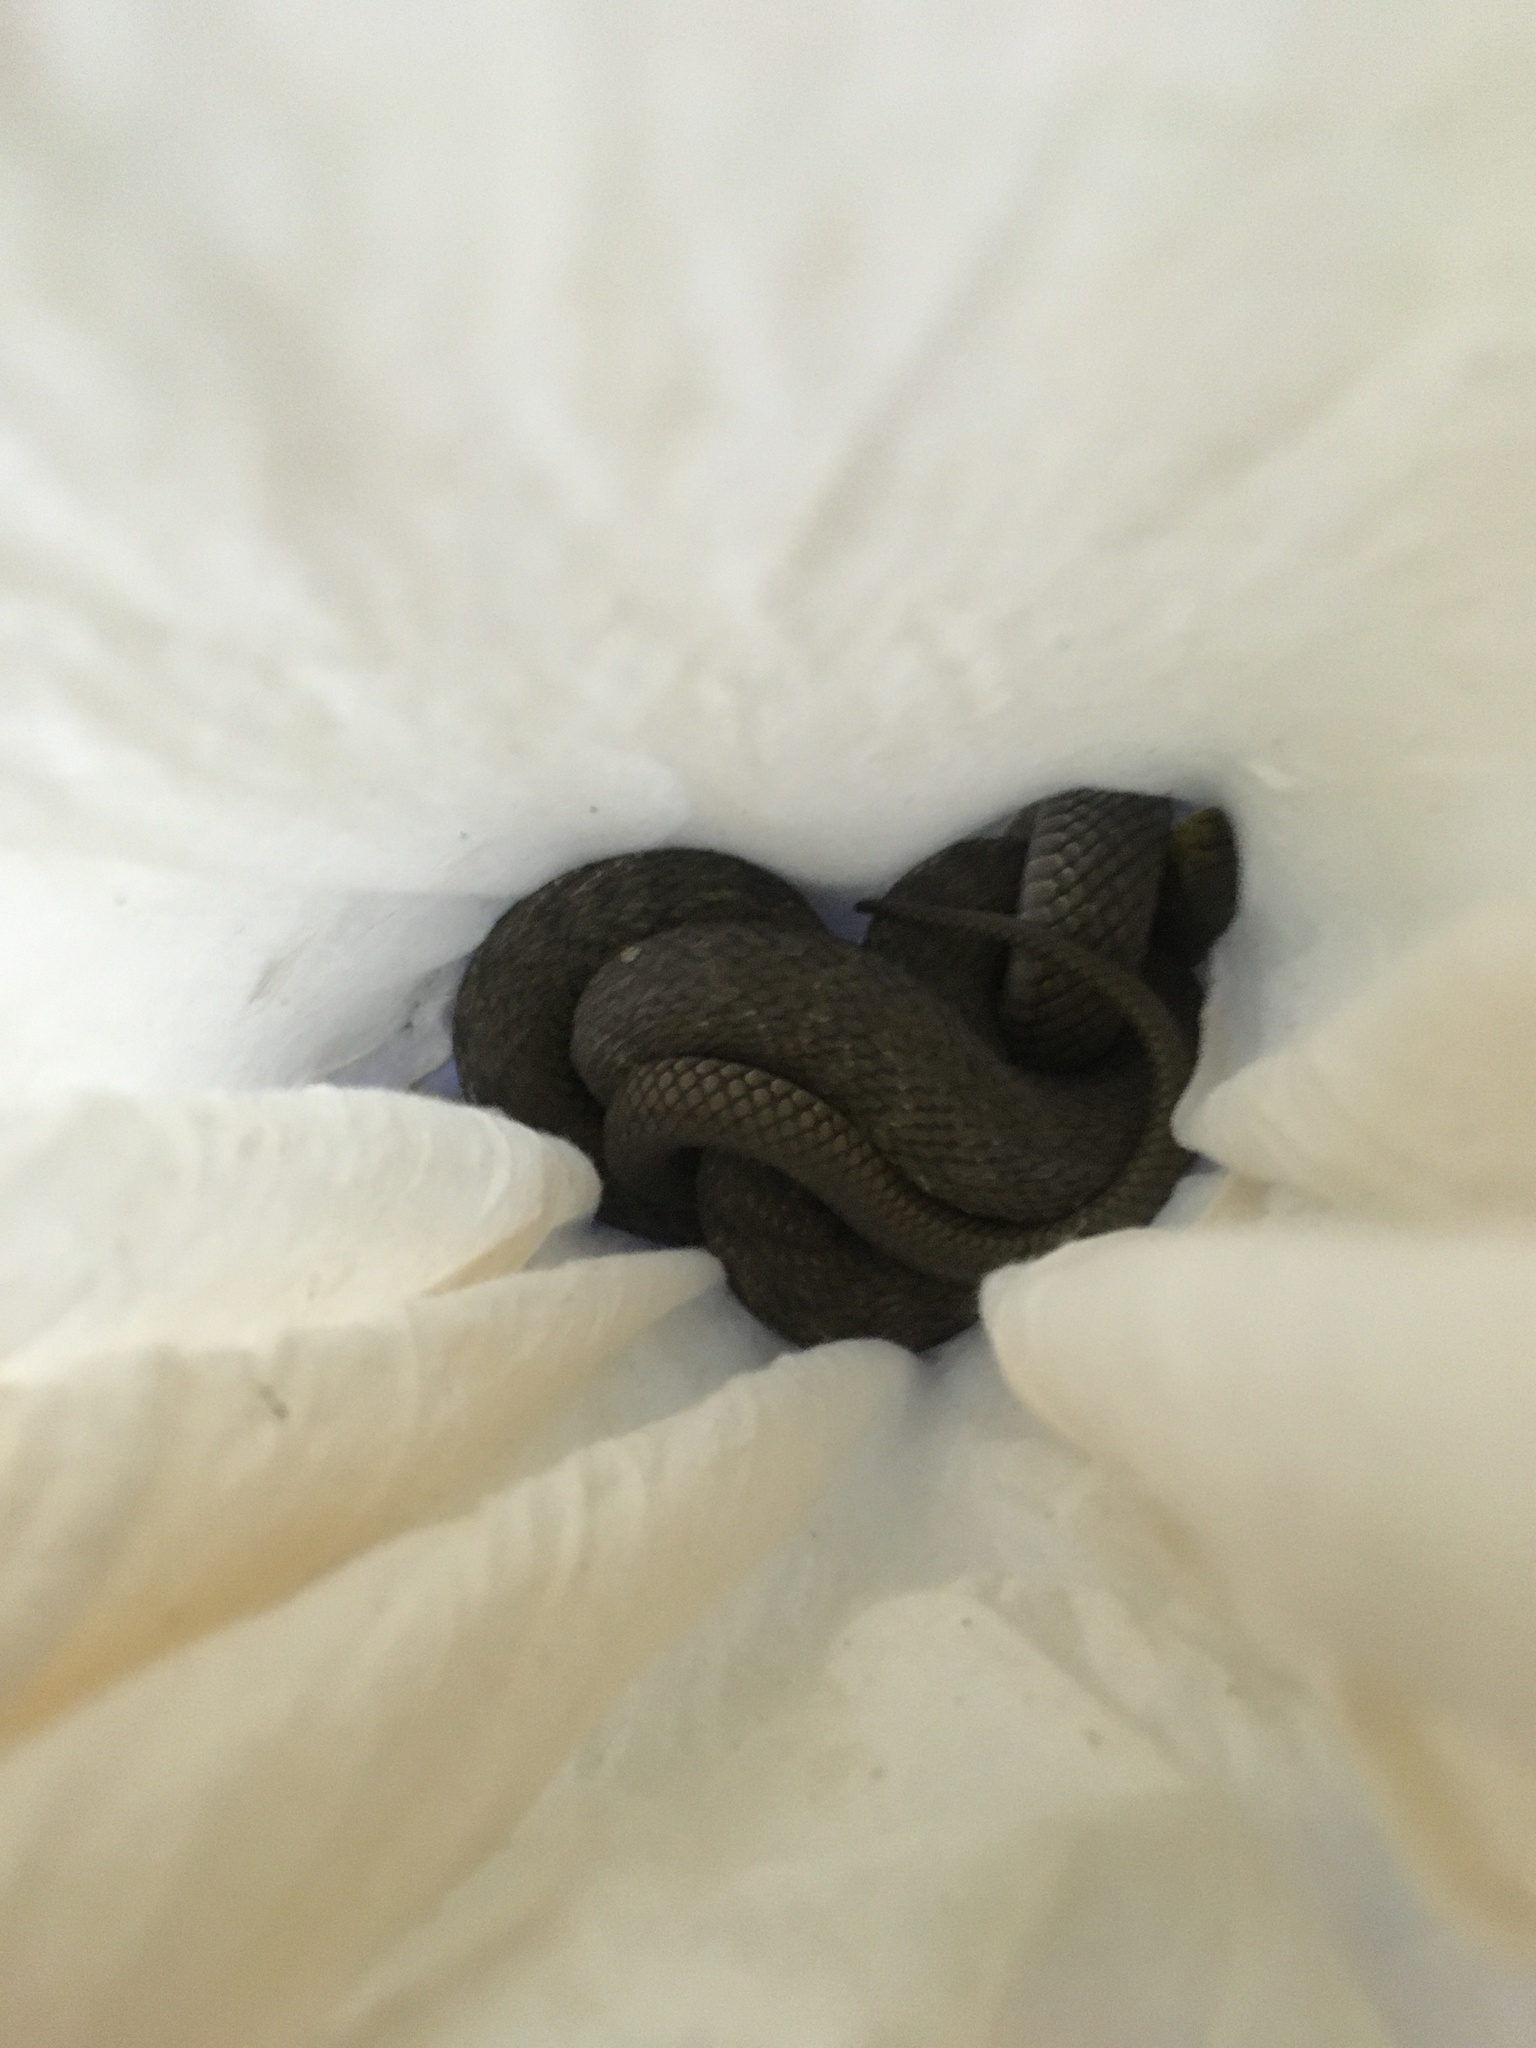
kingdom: Animalia
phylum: Chordata
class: Squamata
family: Colubridae
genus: Elaphe
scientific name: Elaphe carinata
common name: Taiwan stink snake
